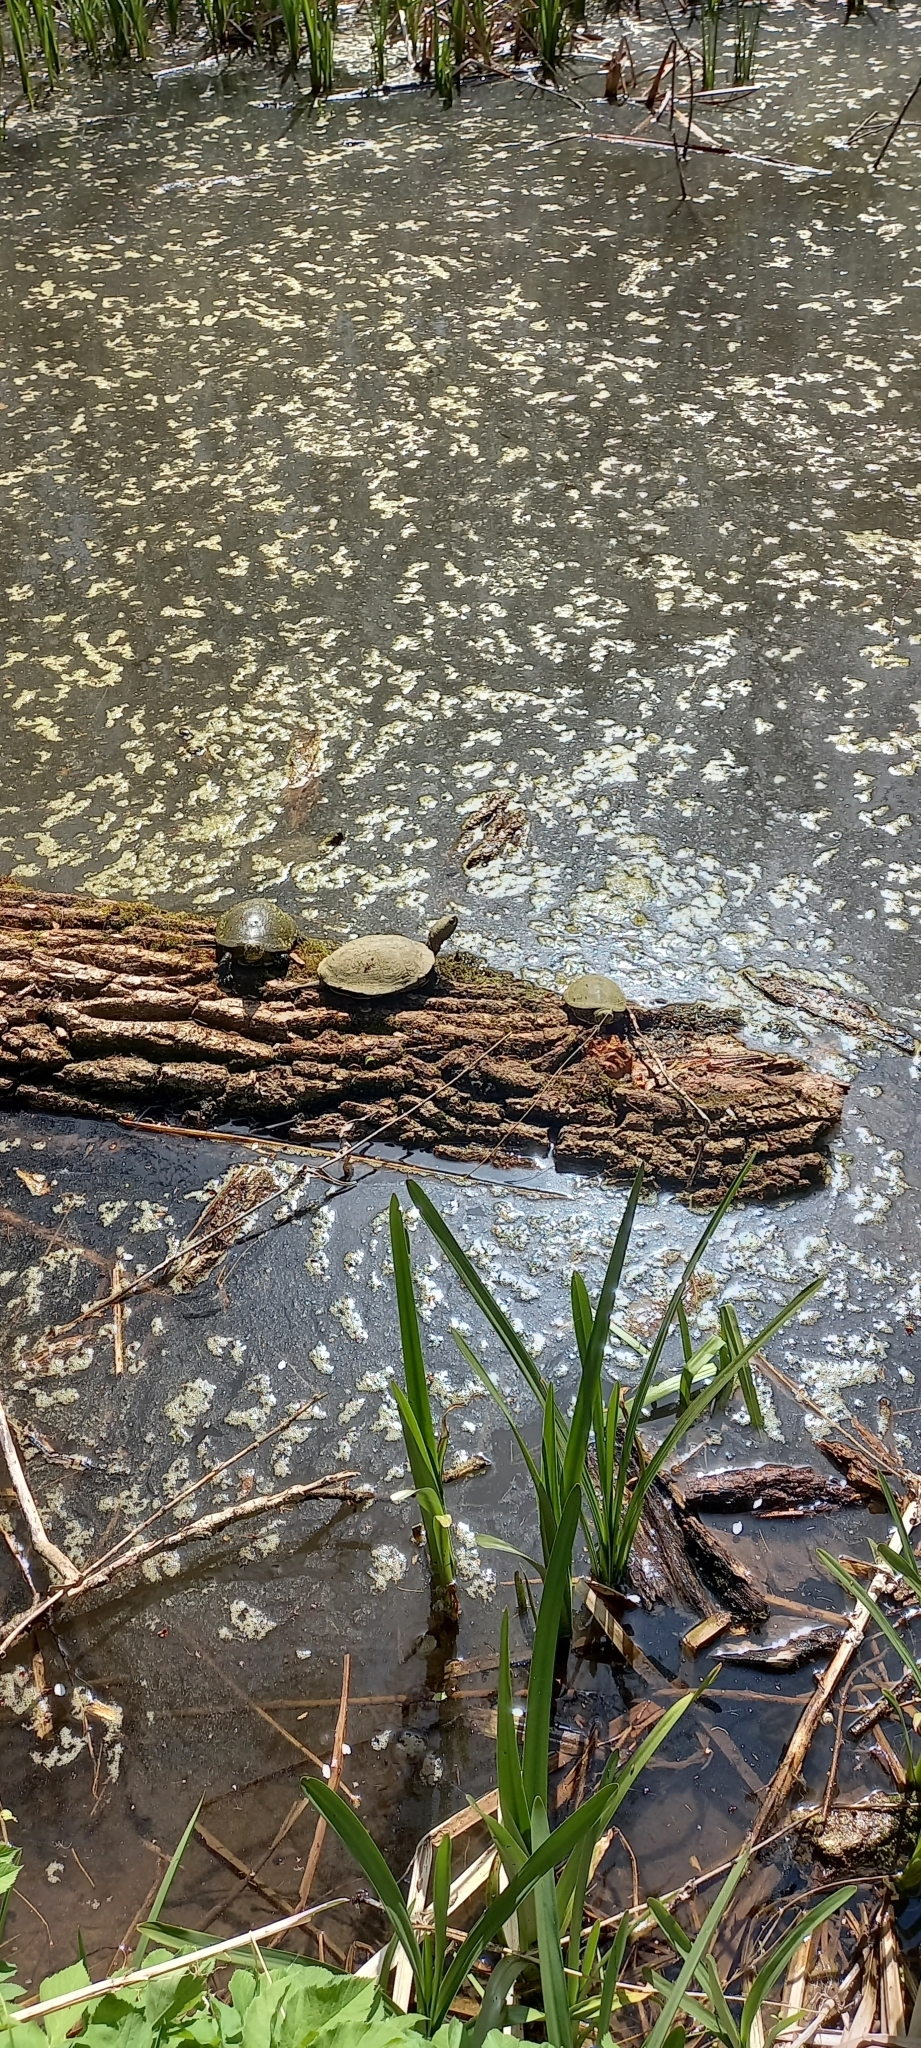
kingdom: Animalia
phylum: Chordata
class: Testudines
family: Emydidae
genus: Emys
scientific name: Emys orbicularis
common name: European pond turtle
